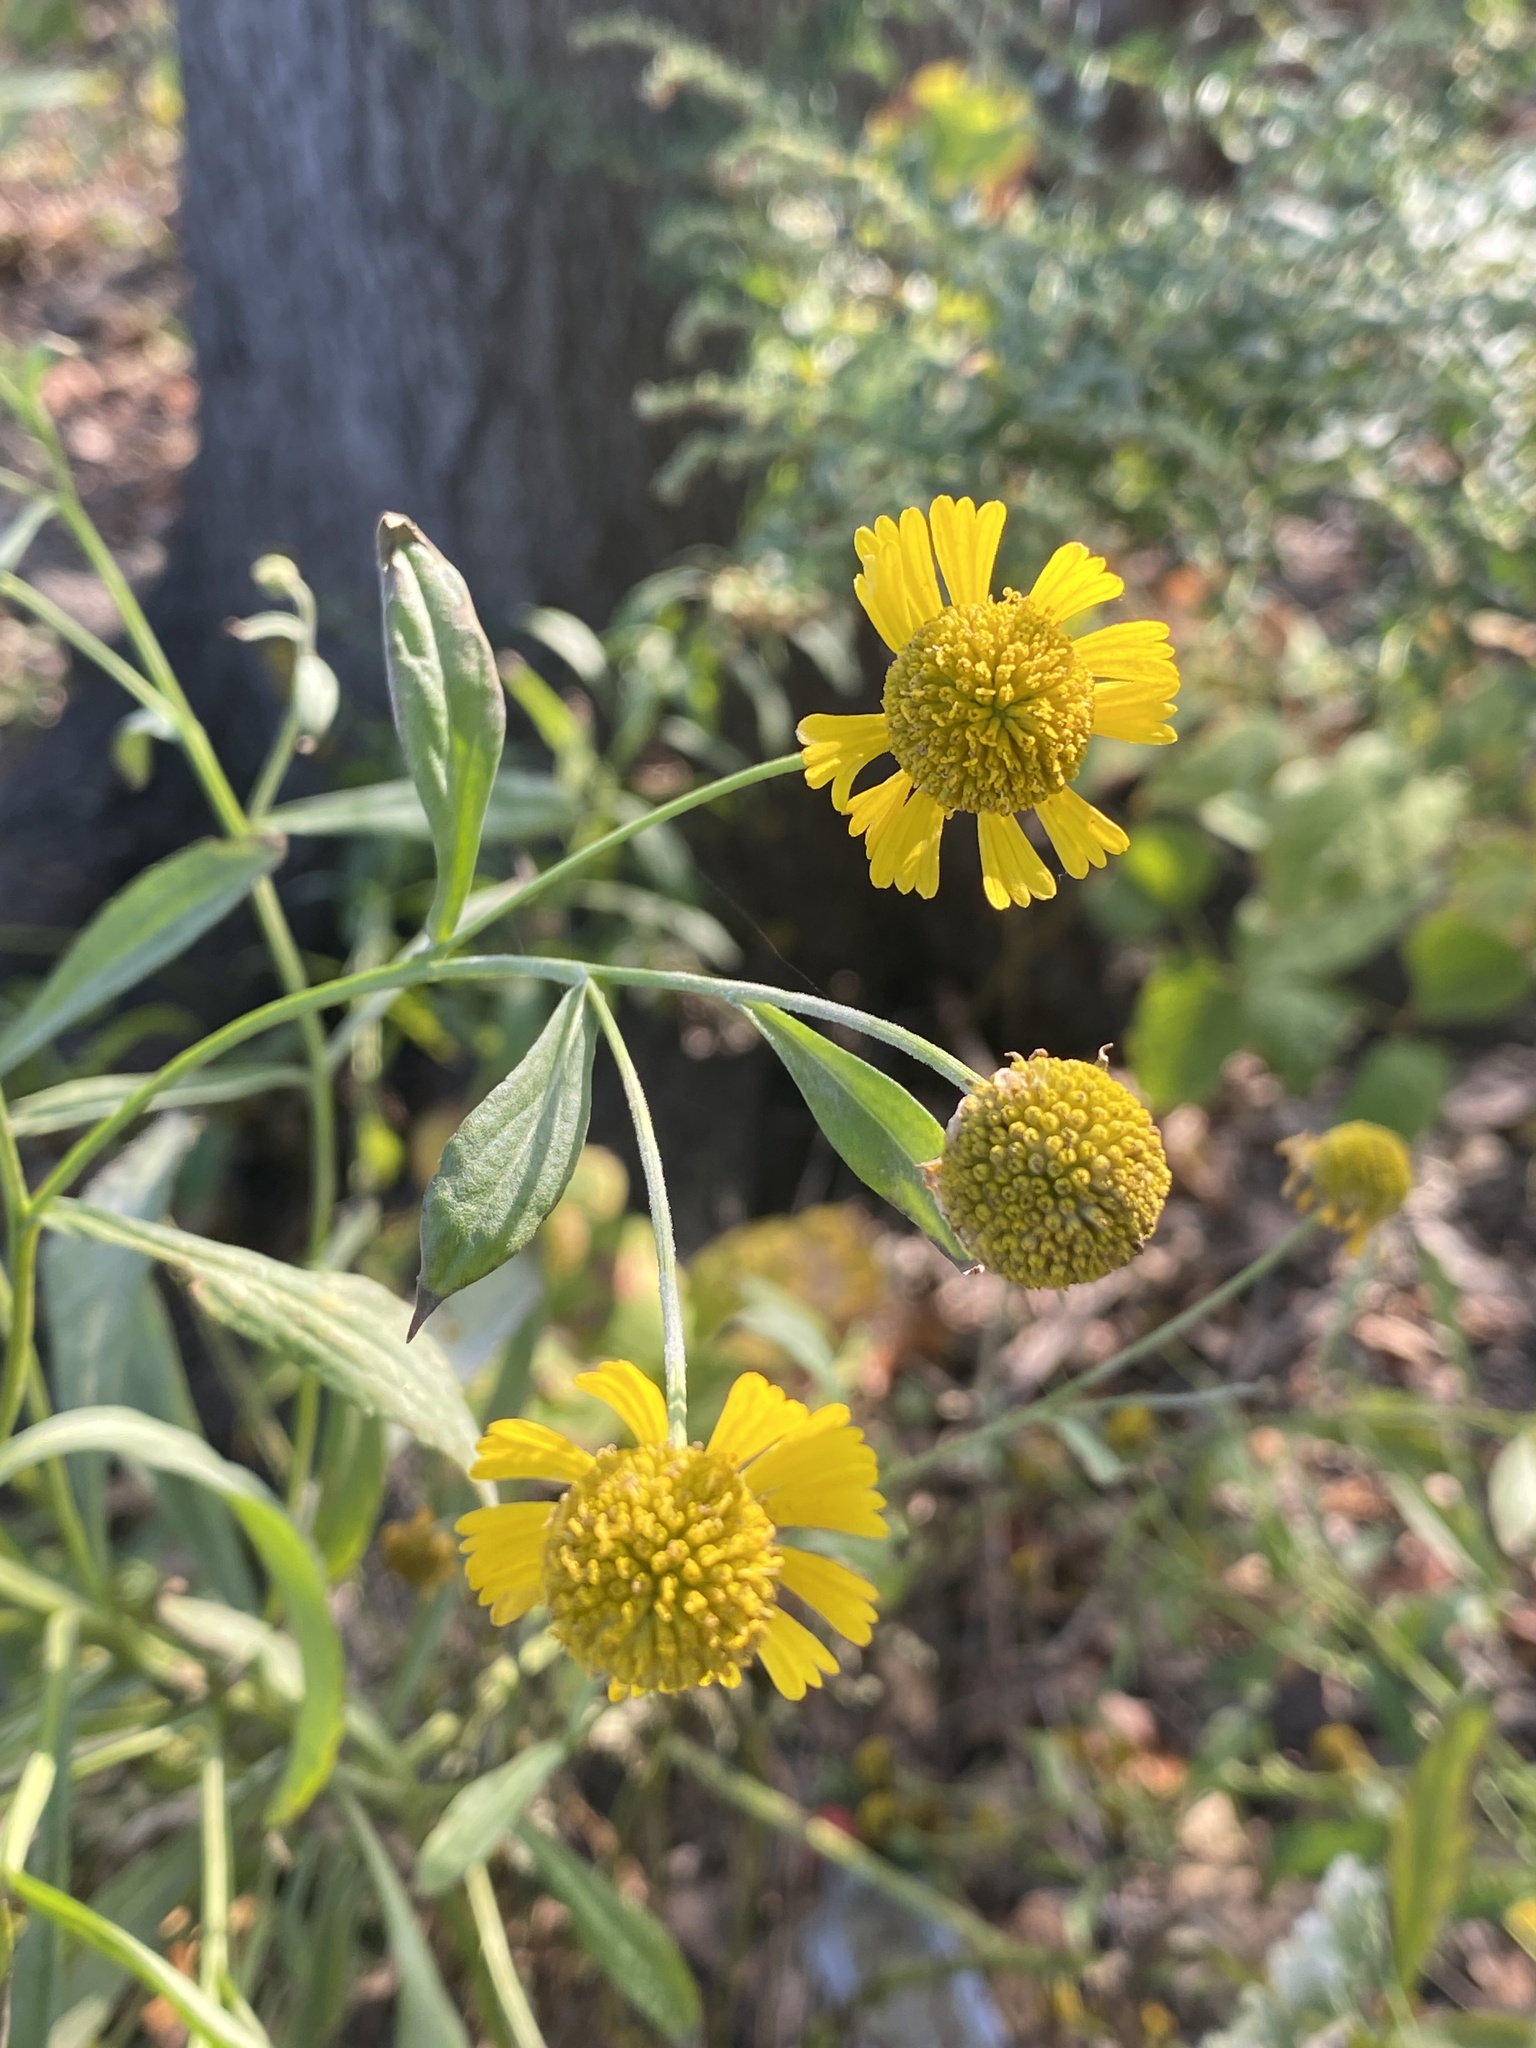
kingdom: Plantae
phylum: Tracheophyta
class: Magnoliopsida
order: Asterales
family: Asteraceae
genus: Helenium
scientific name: Helenium autumnale
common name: Sneezeweed
